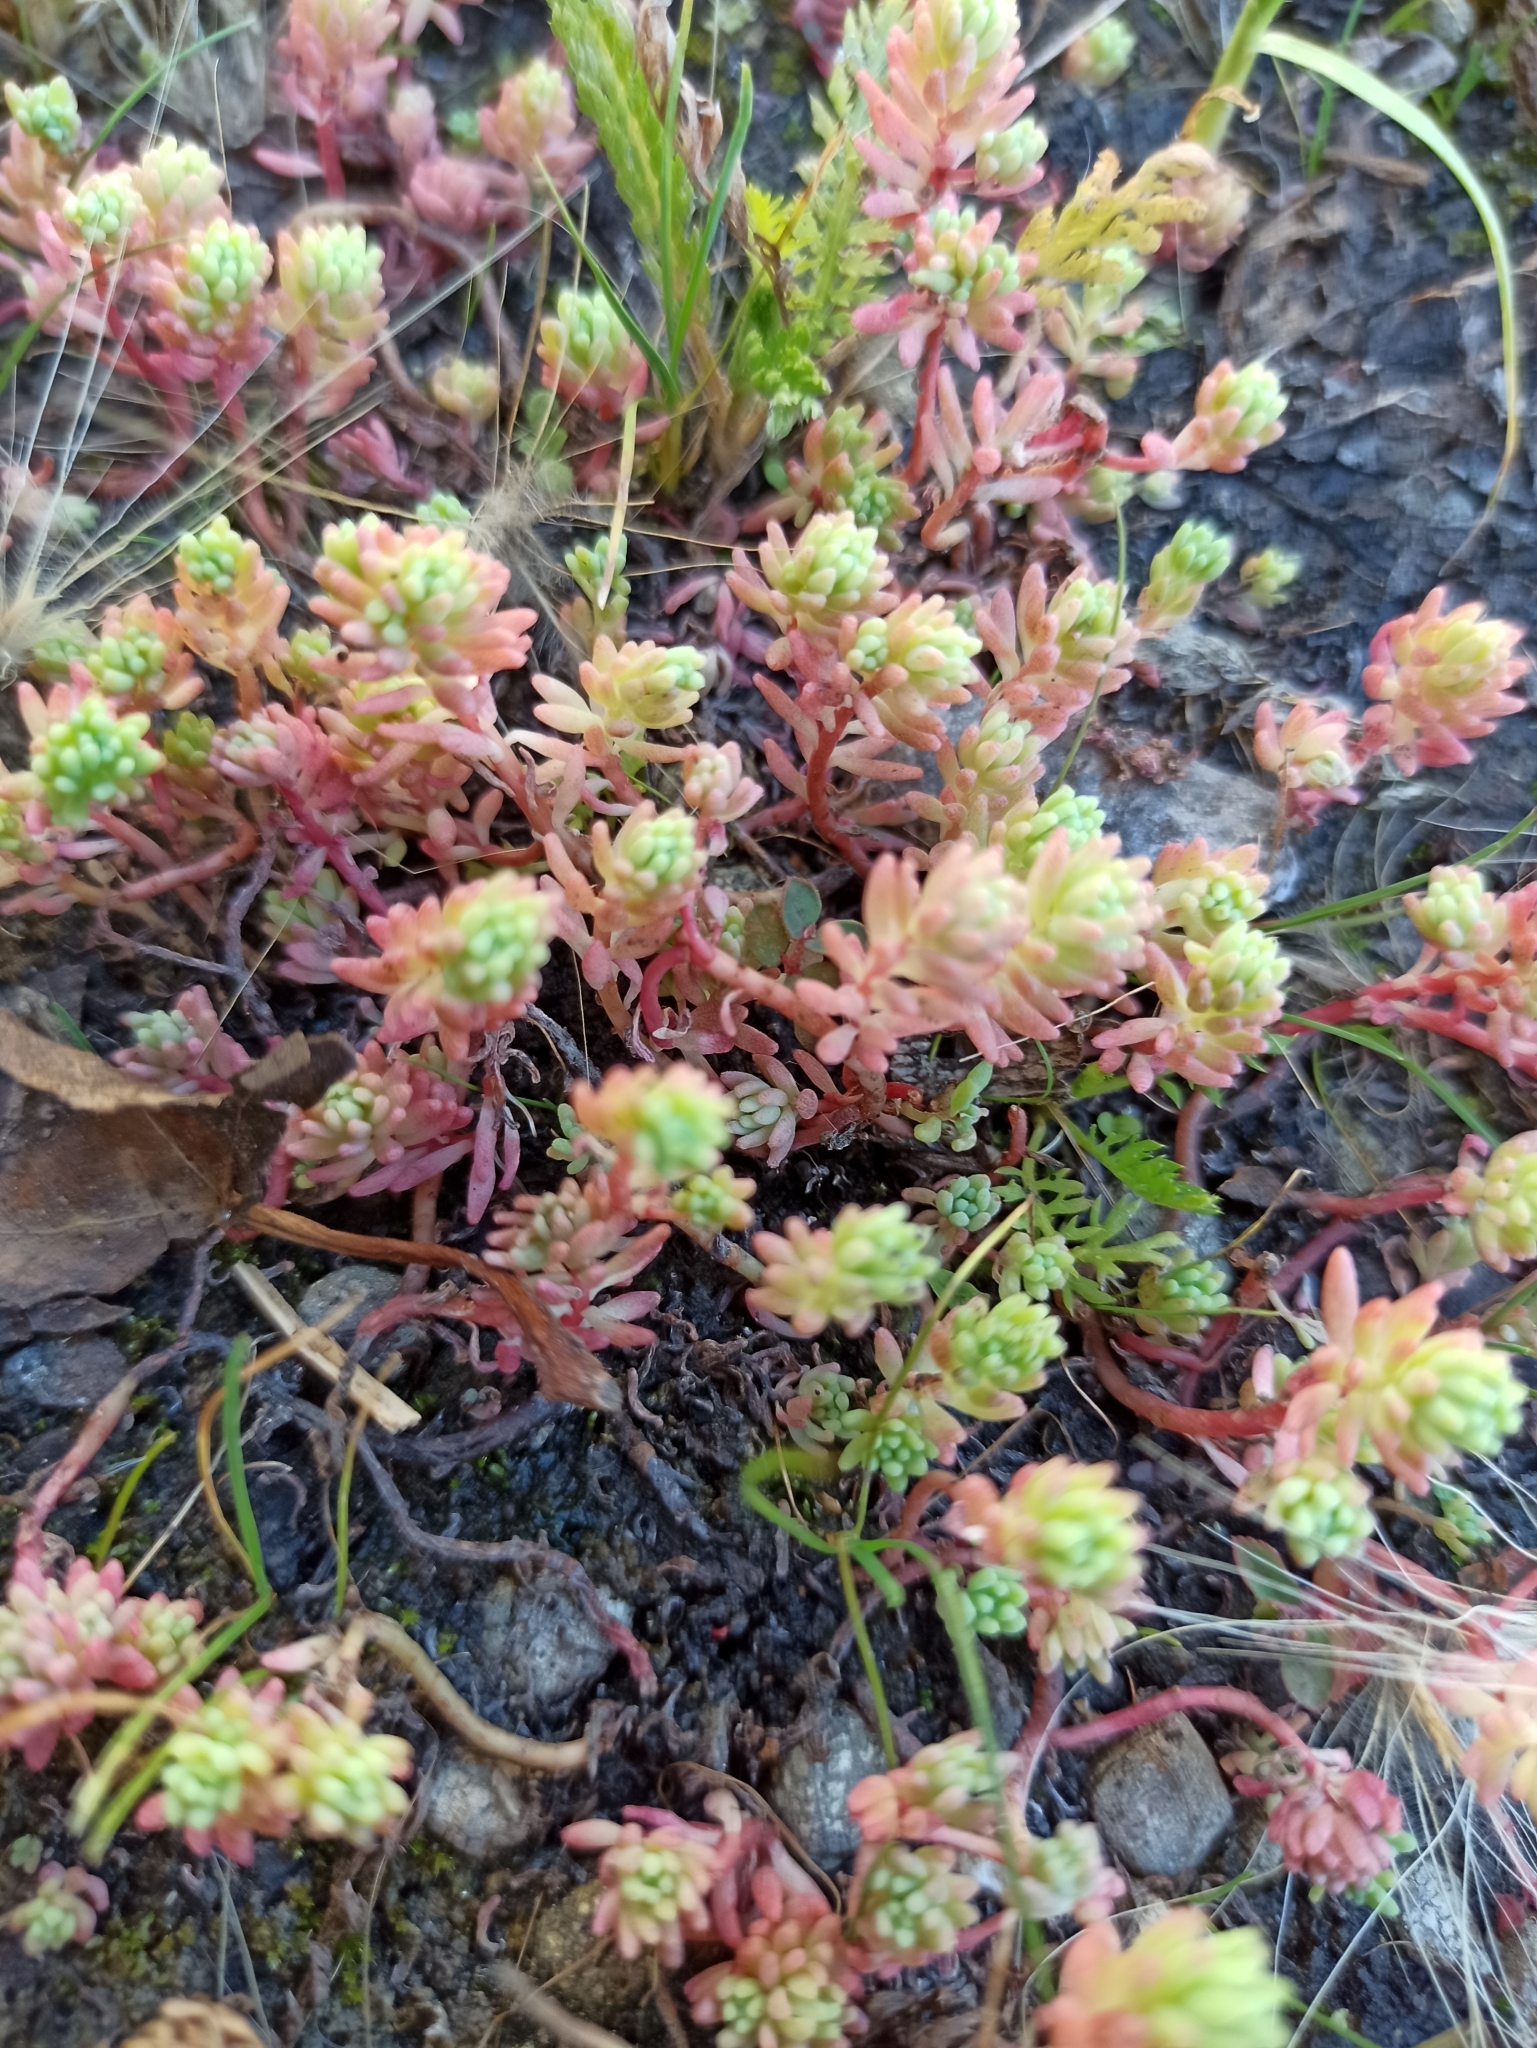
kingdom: Plantae
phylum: Tracheophyta
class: Magnoliopsida
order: Saxifragales
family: Crassulaceae
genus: Sedum
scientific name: Sedum pallidum
